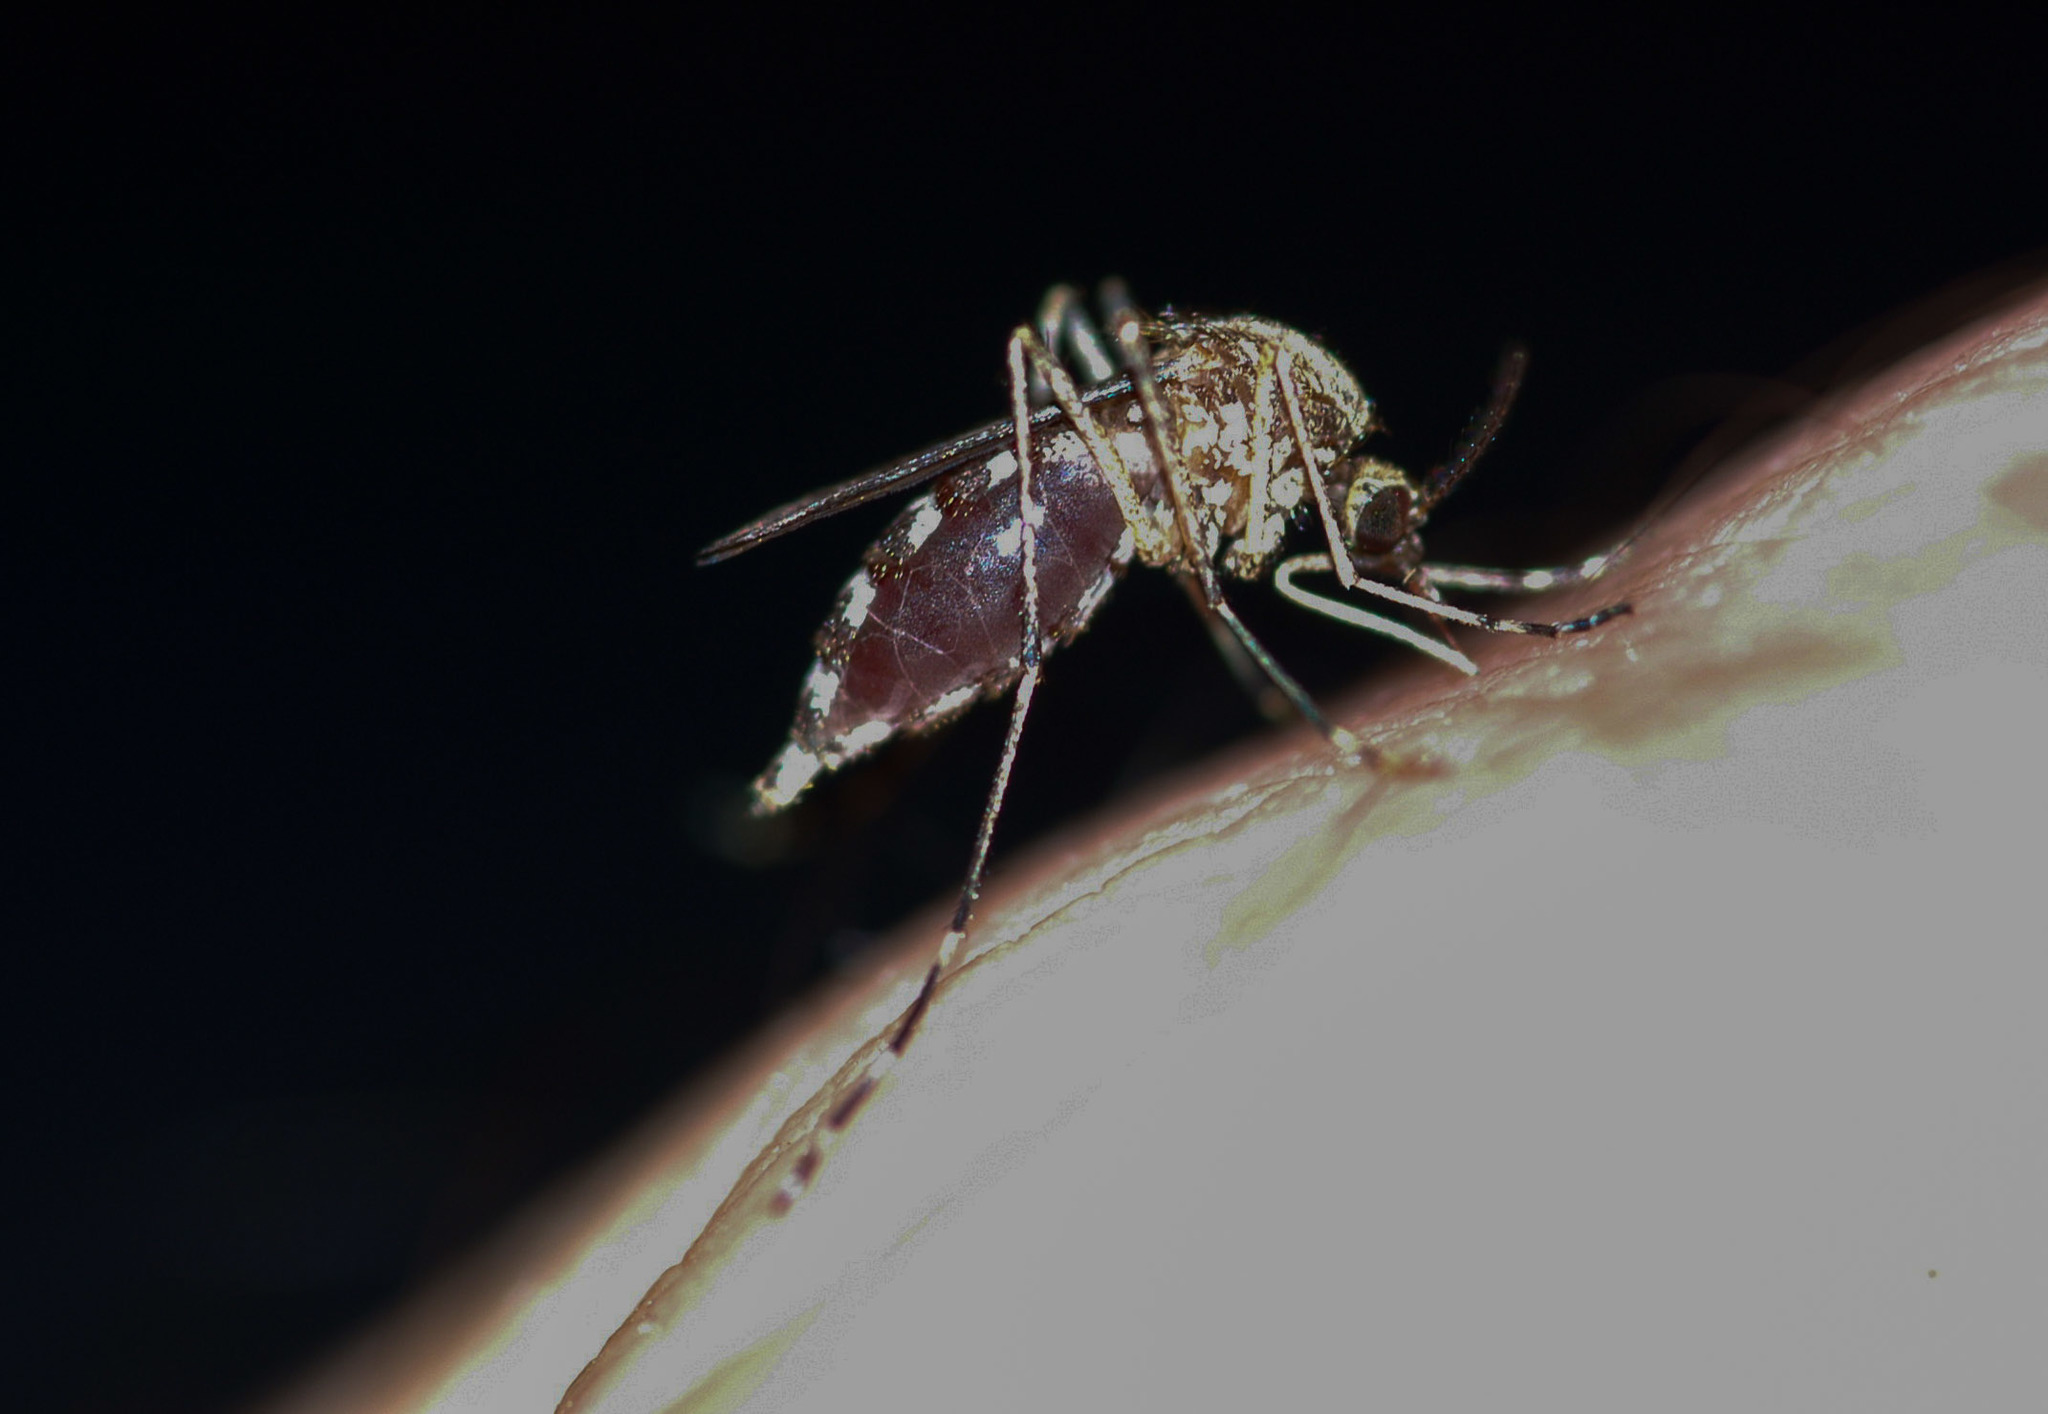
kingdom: Animalia
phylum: Arthropoda
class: Insecta
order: Diptera
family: Culicidae
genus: Aedes
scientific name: Aedes camptorhynchus
